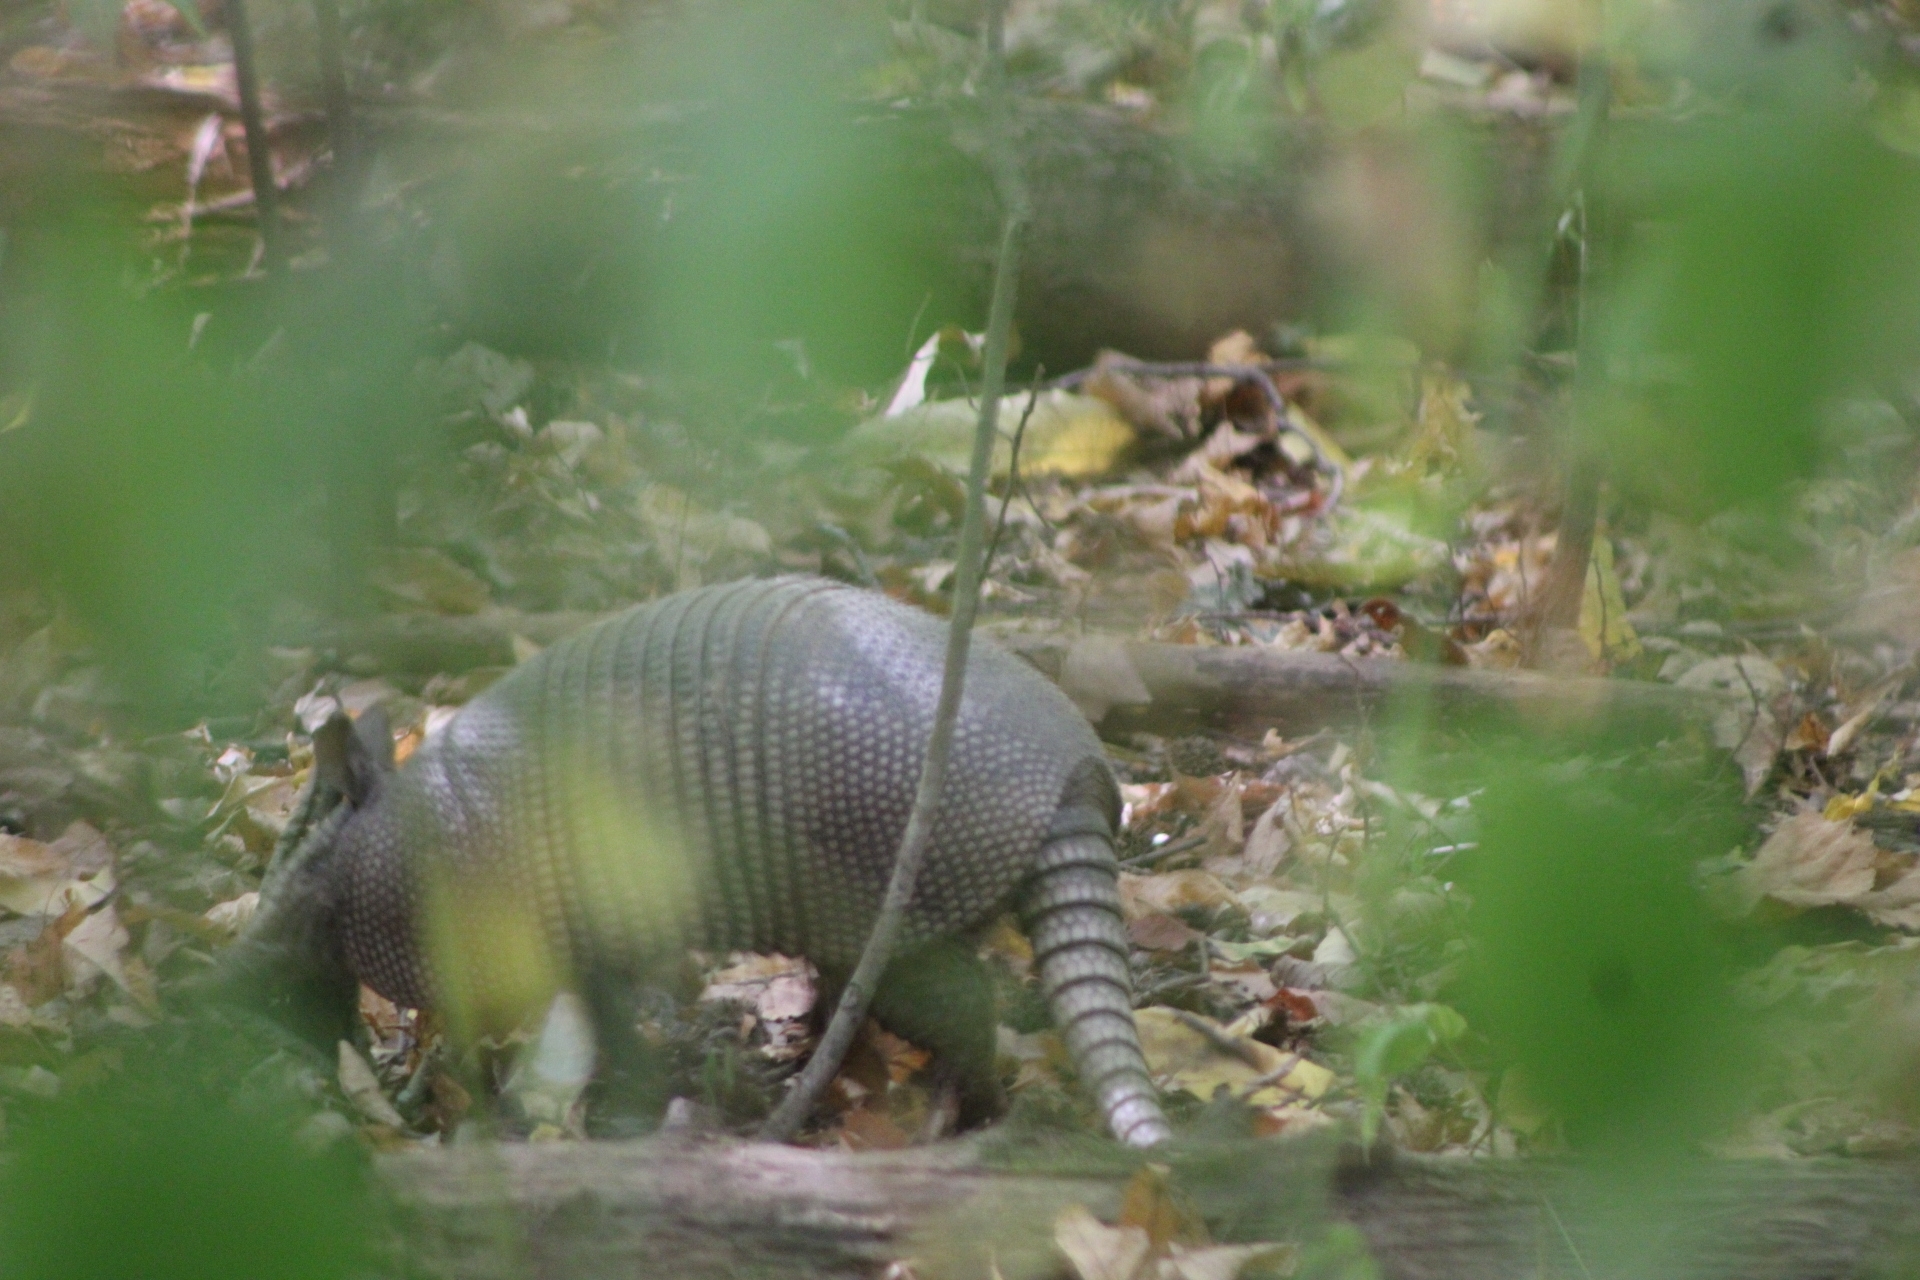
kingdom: Animalia
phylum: Chordata
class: Mammalia
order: Cingulata
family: Dasypodidae
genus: Dasypus
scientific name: Dasypus novemcinctus
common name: Nine-banded armadillo
